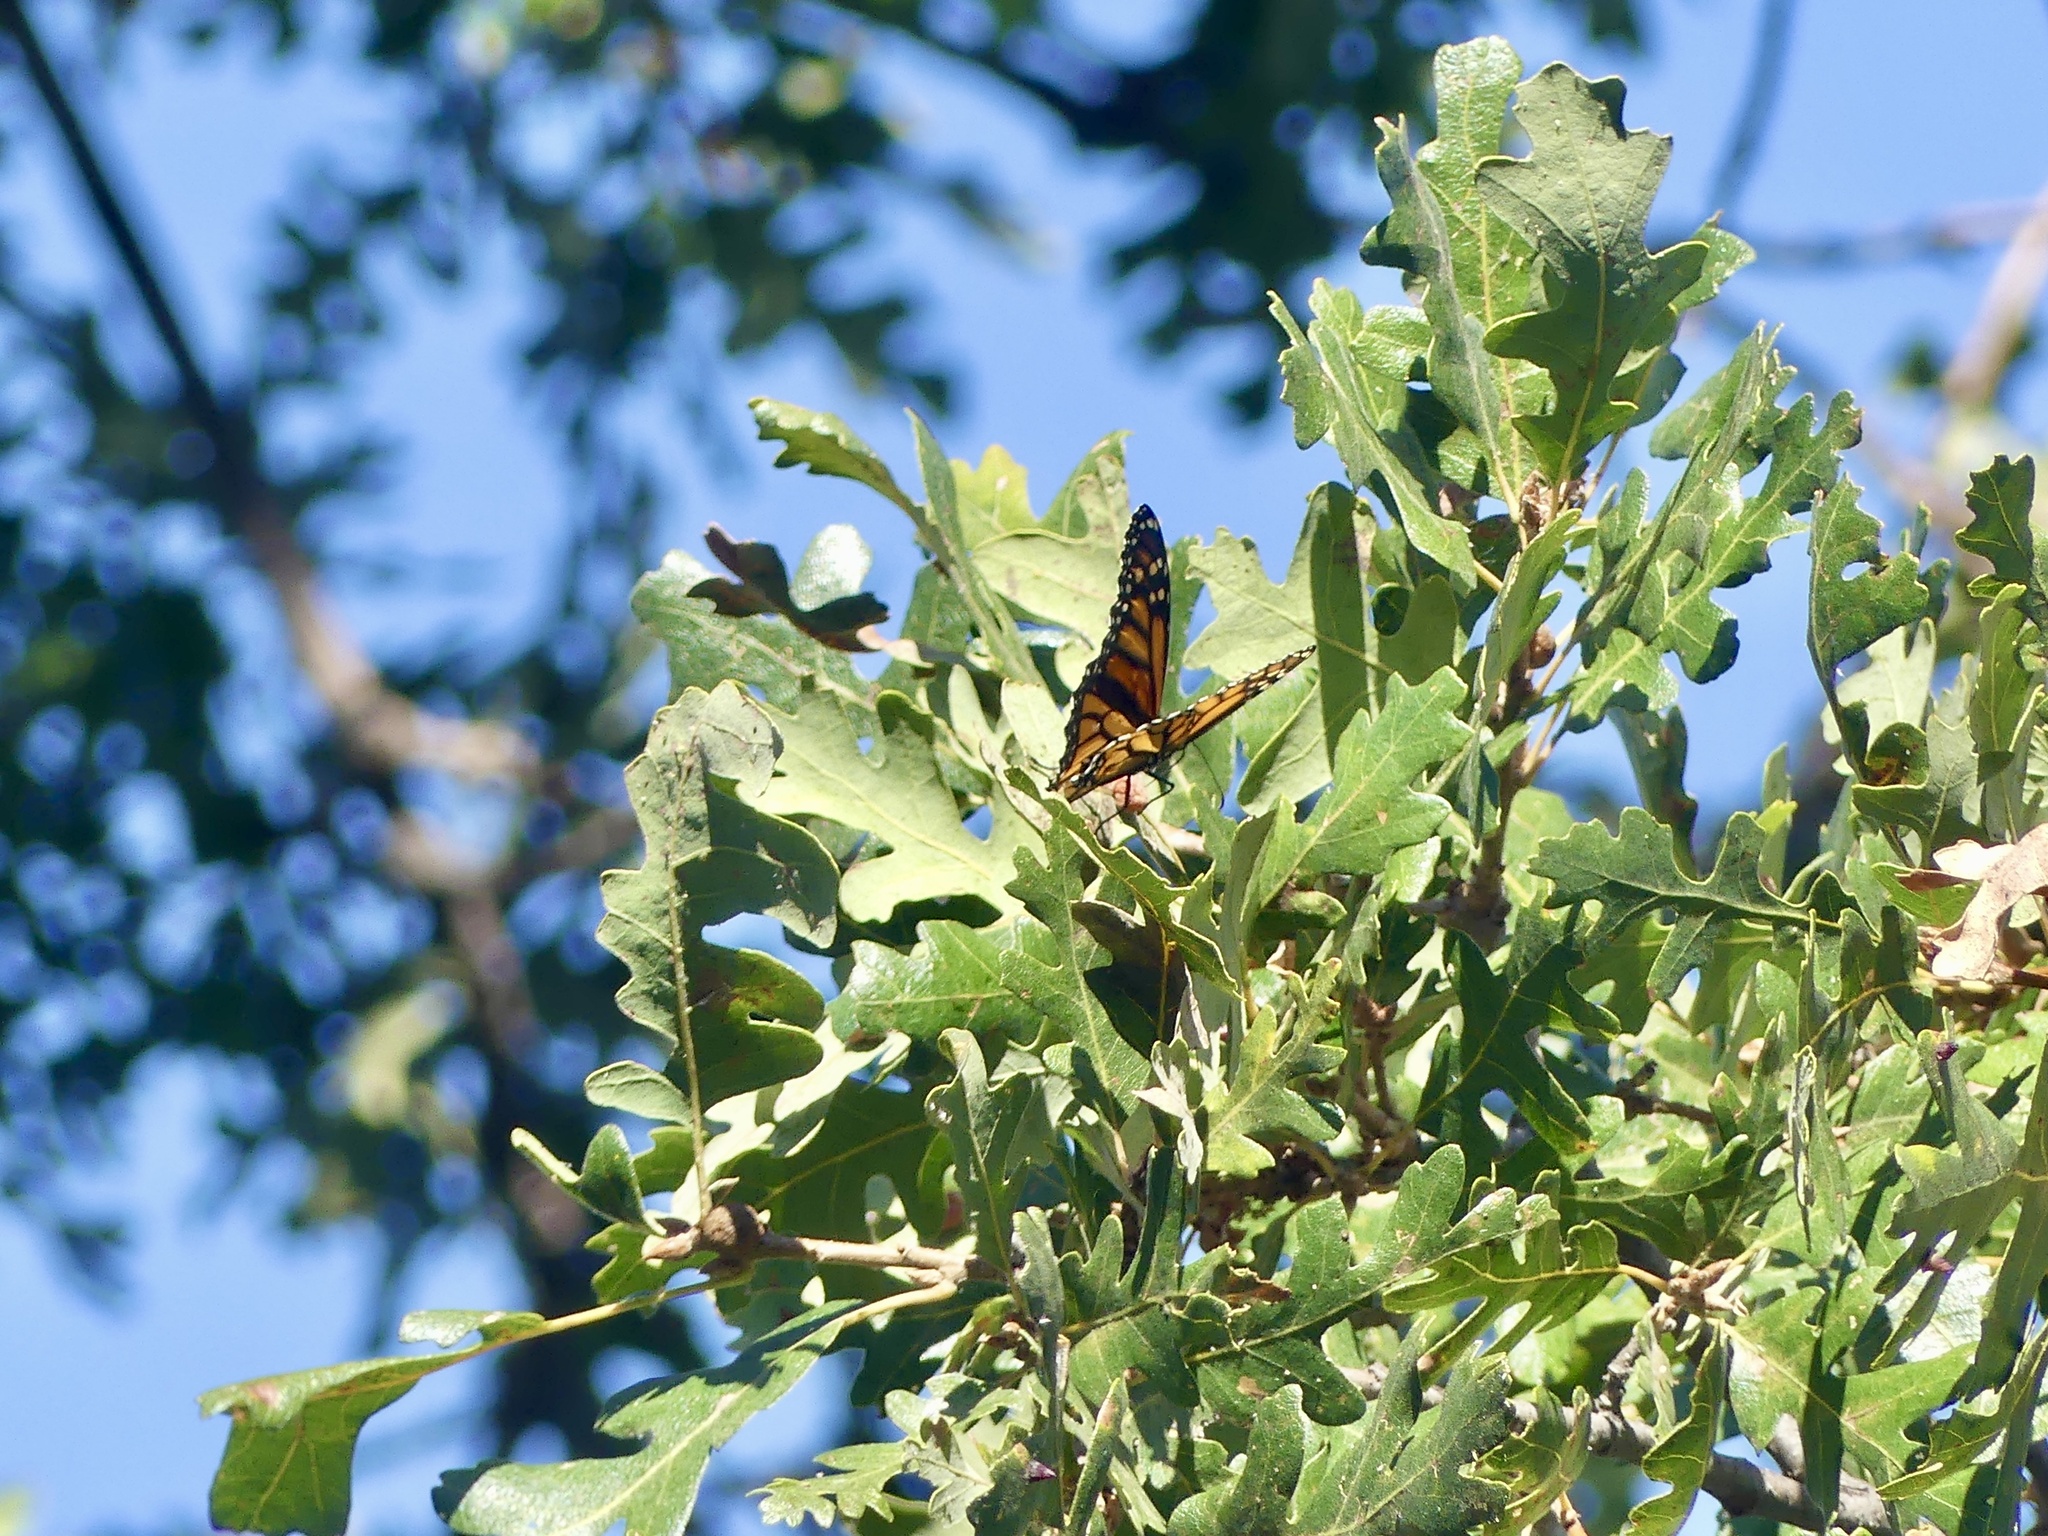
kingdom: Animalia
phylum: Arthropoda
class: Insecta
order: Lepidoptera
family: Nymphalidae
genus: Danaus
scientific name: Danaus plexippus
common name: Monarch
